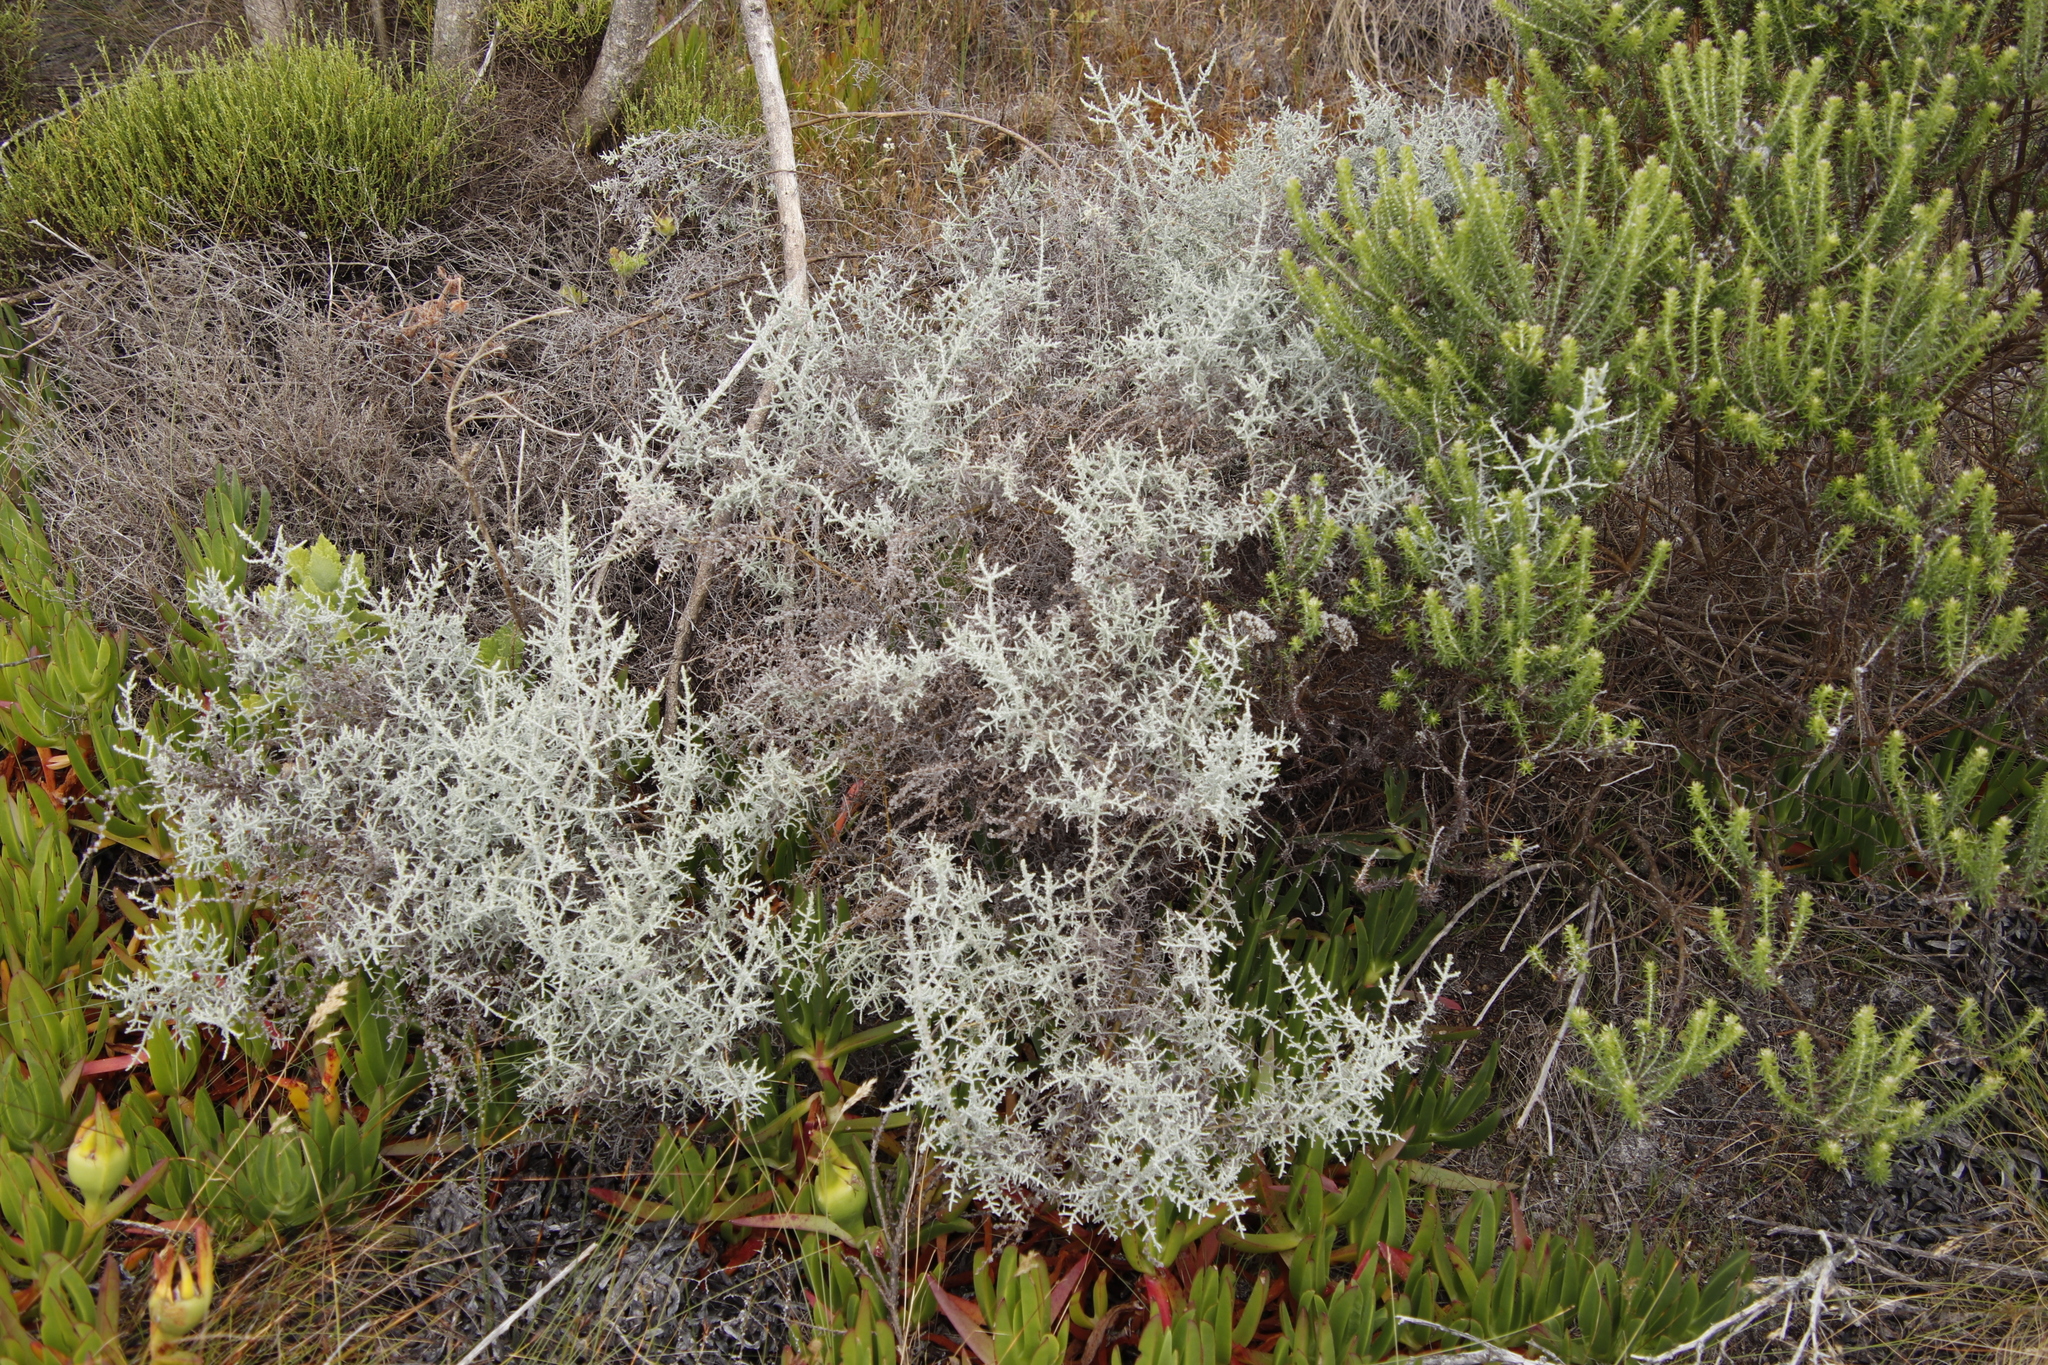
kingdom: Plantae
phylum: Tracheophyta
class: Magnoliopsida
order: Asterales
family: Asteraceae
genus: Seriphium
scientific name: Seriphium plumosum
